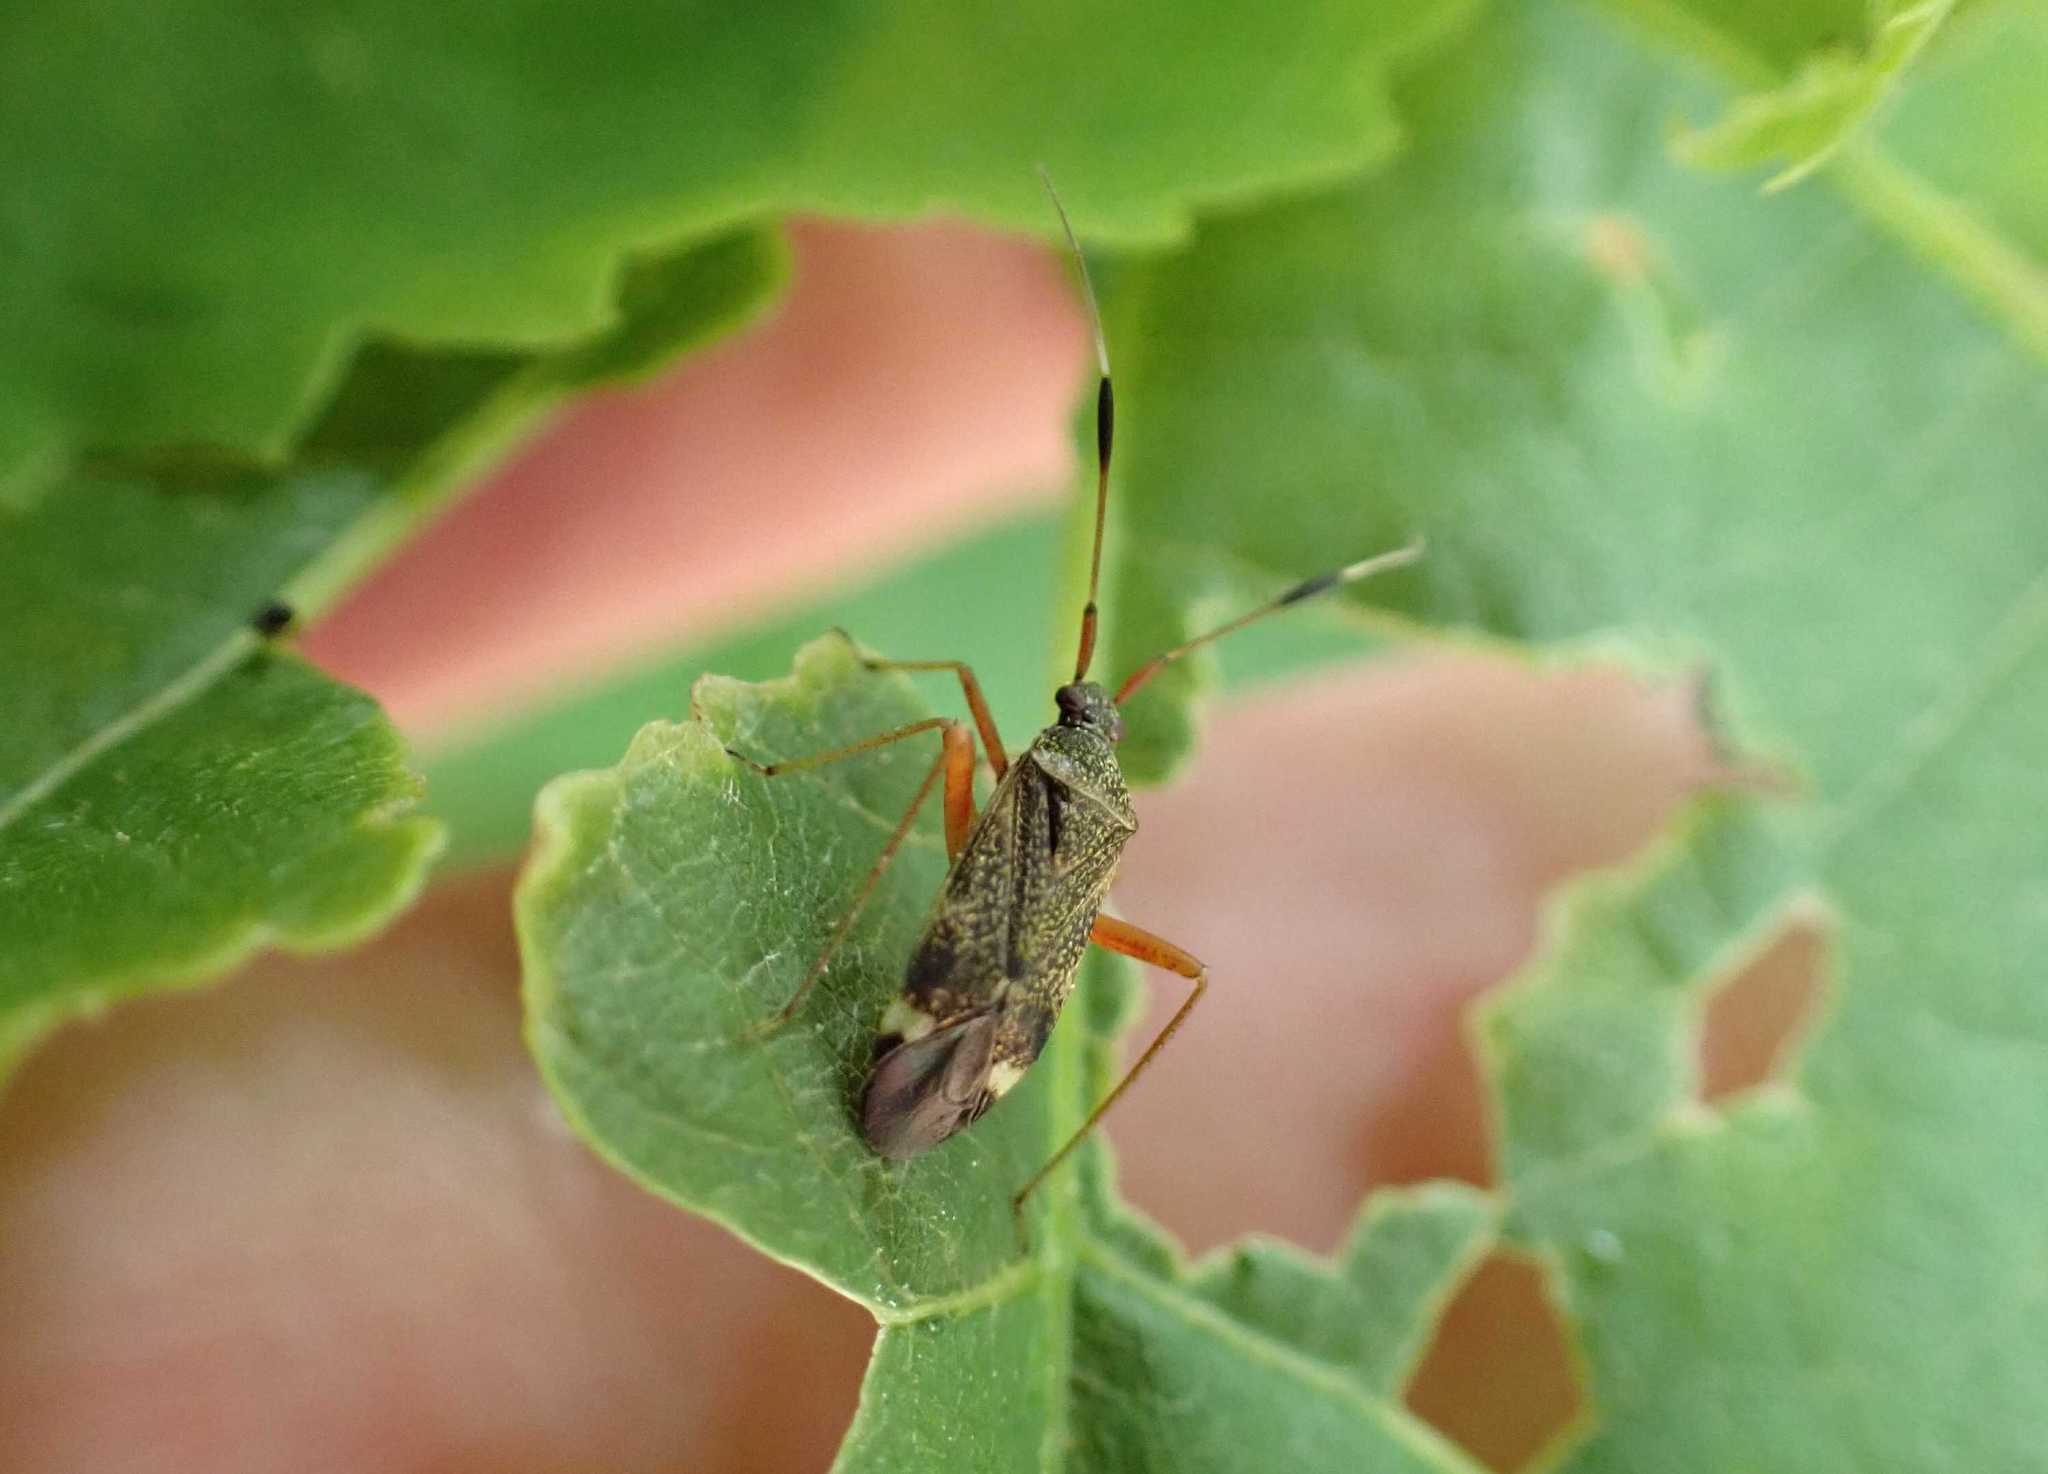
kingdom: Animalia
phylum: Arthropoda
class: Insecta
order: Hemiptera
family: Miridae
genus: Closterotomus
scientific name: Closterotomus biclavatus
